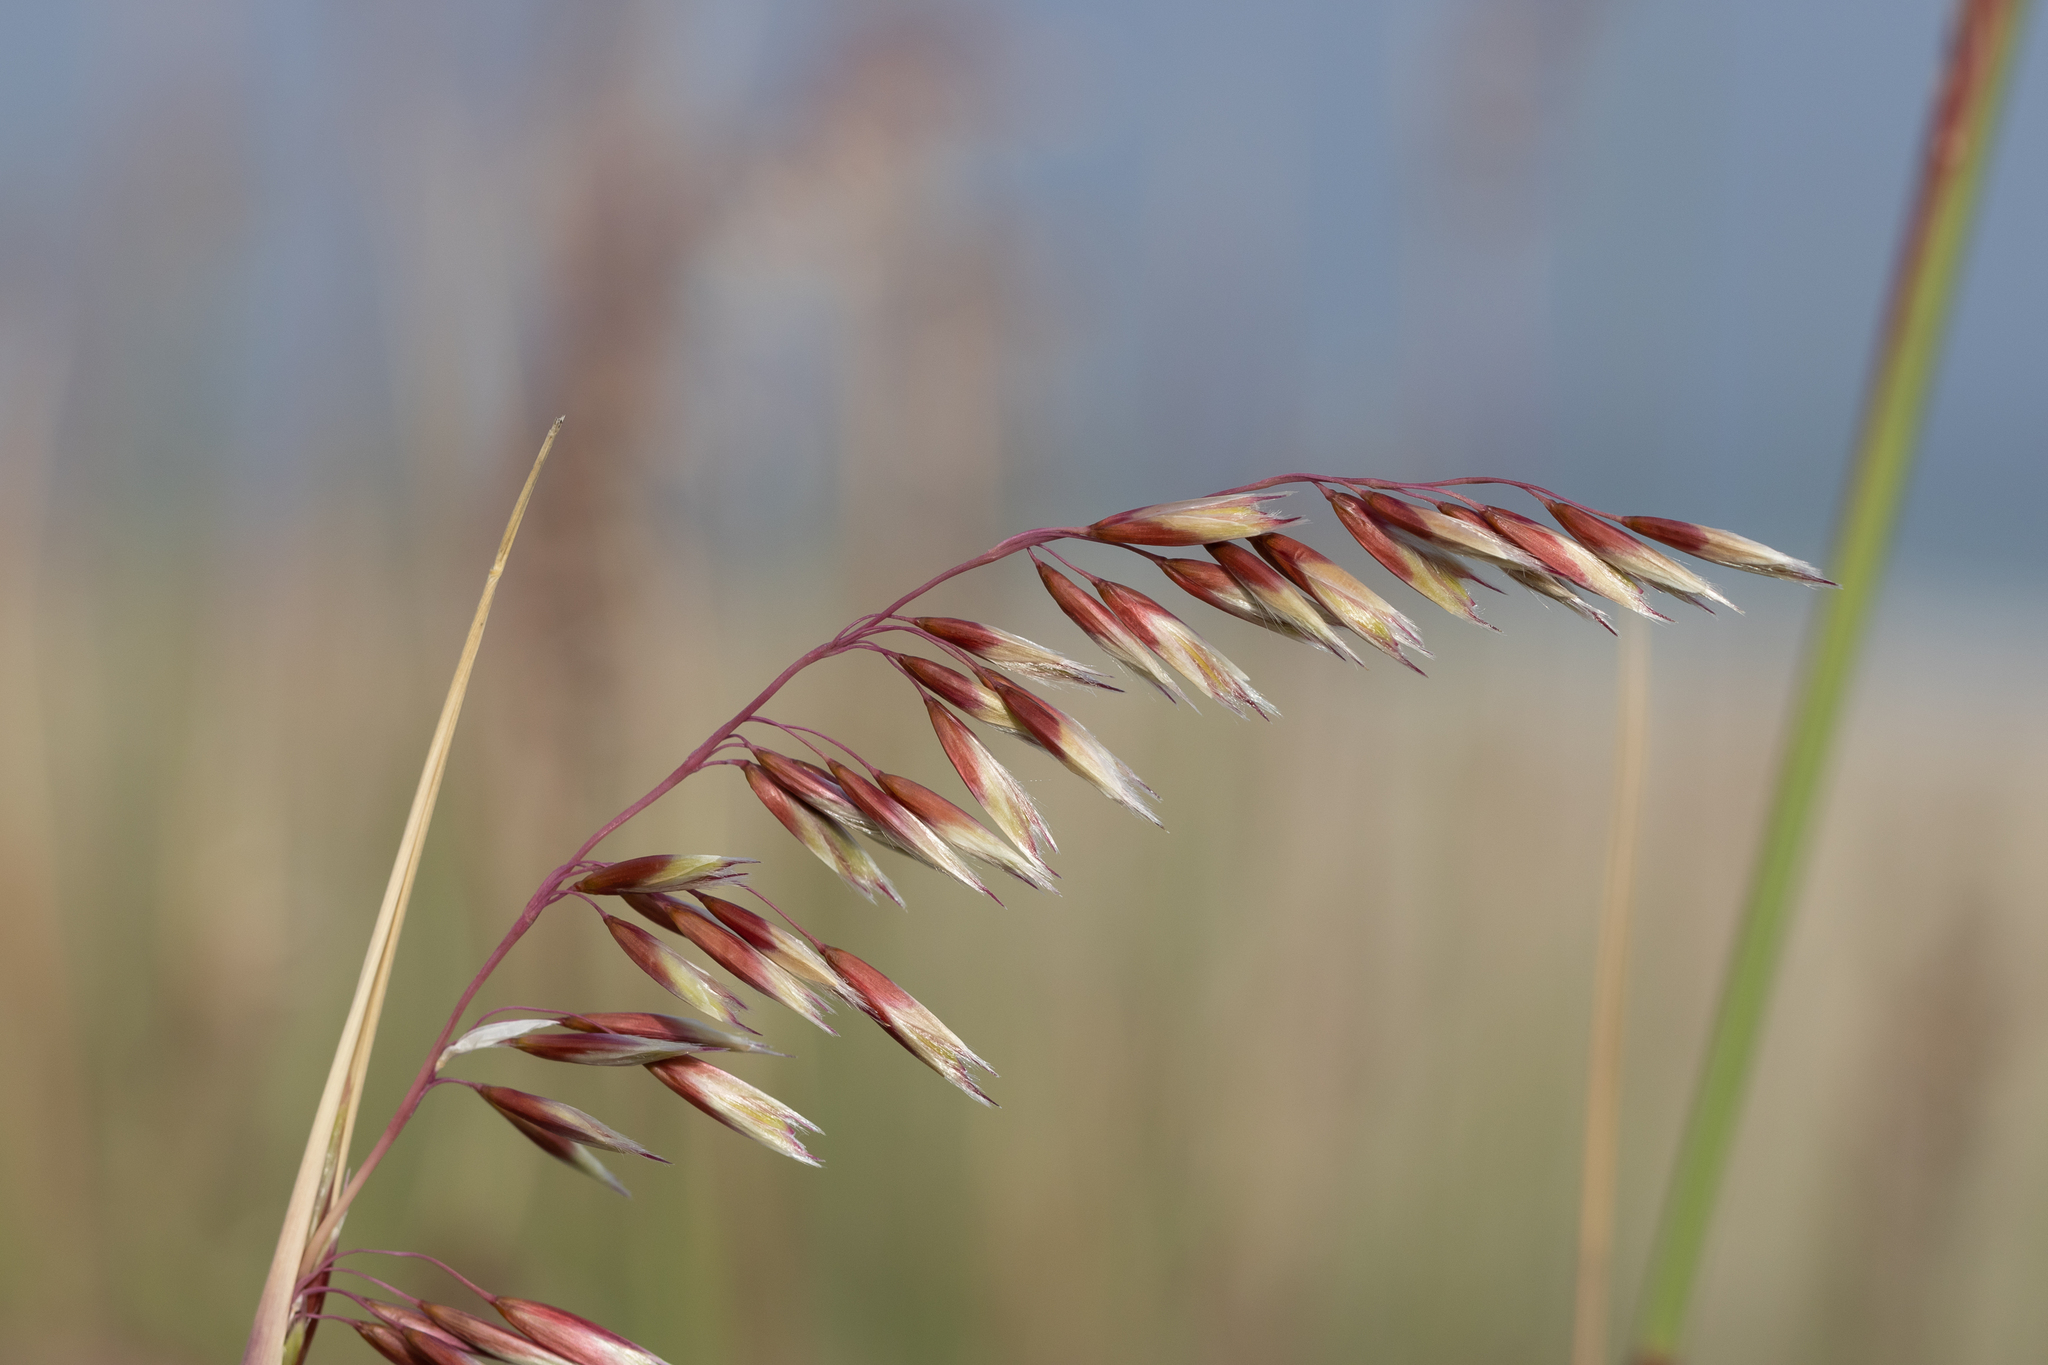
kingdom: Plantae
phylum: Tracheophyta
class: Liliopsida
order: Poales
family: Poaceae
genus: Ehrharta
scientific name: Ehrharta villosa
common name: Pyp grass
